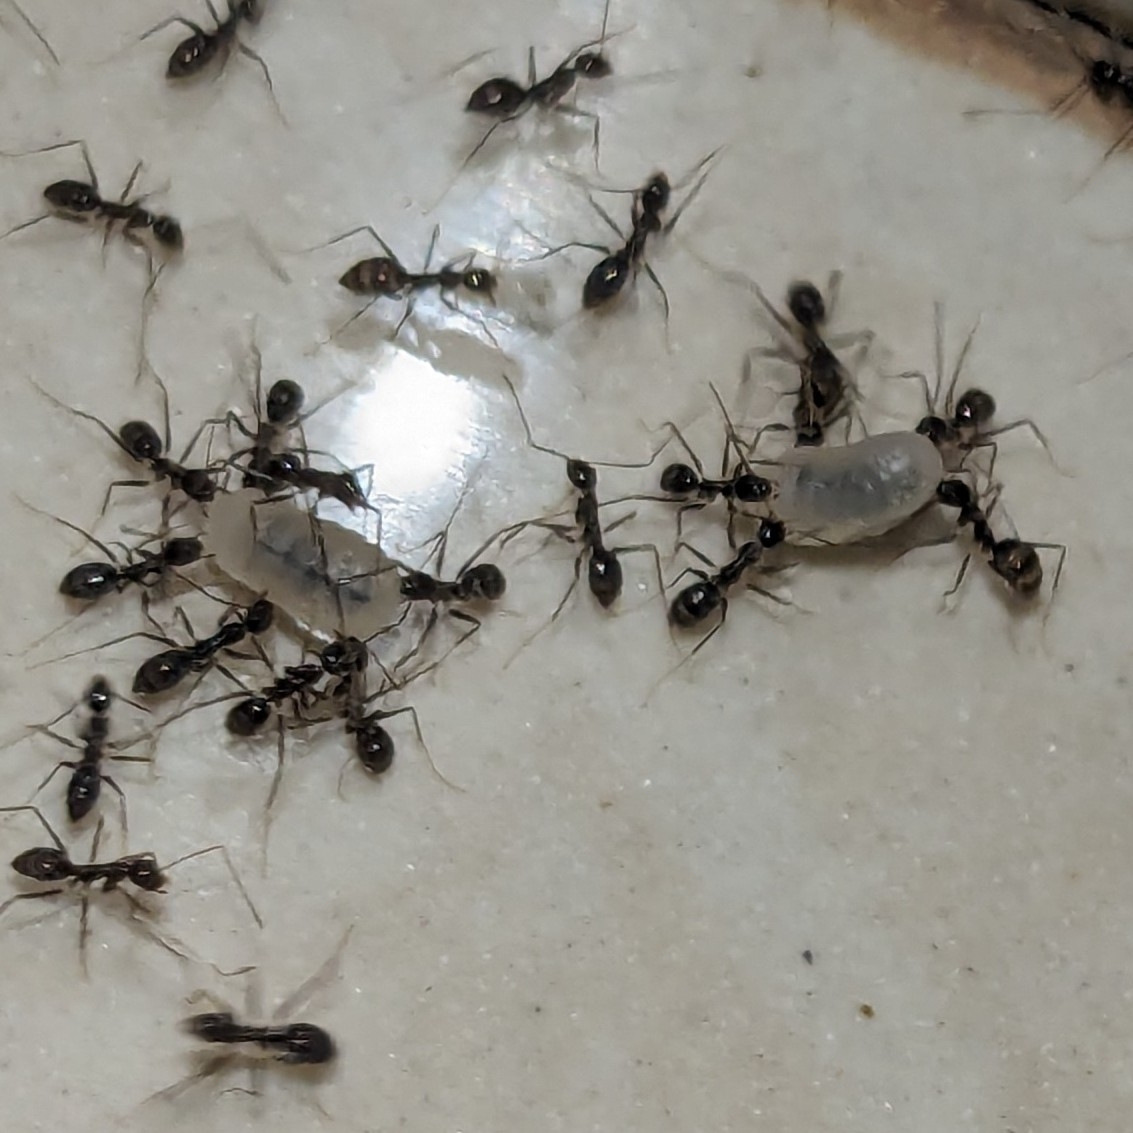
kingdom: Animalia
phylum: Arthropoda
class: Insecta
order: Hymenoptera
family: Formicidae
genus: Paratrechina
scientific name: Paratrechina longicornis
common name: Longhorned crazy ant
